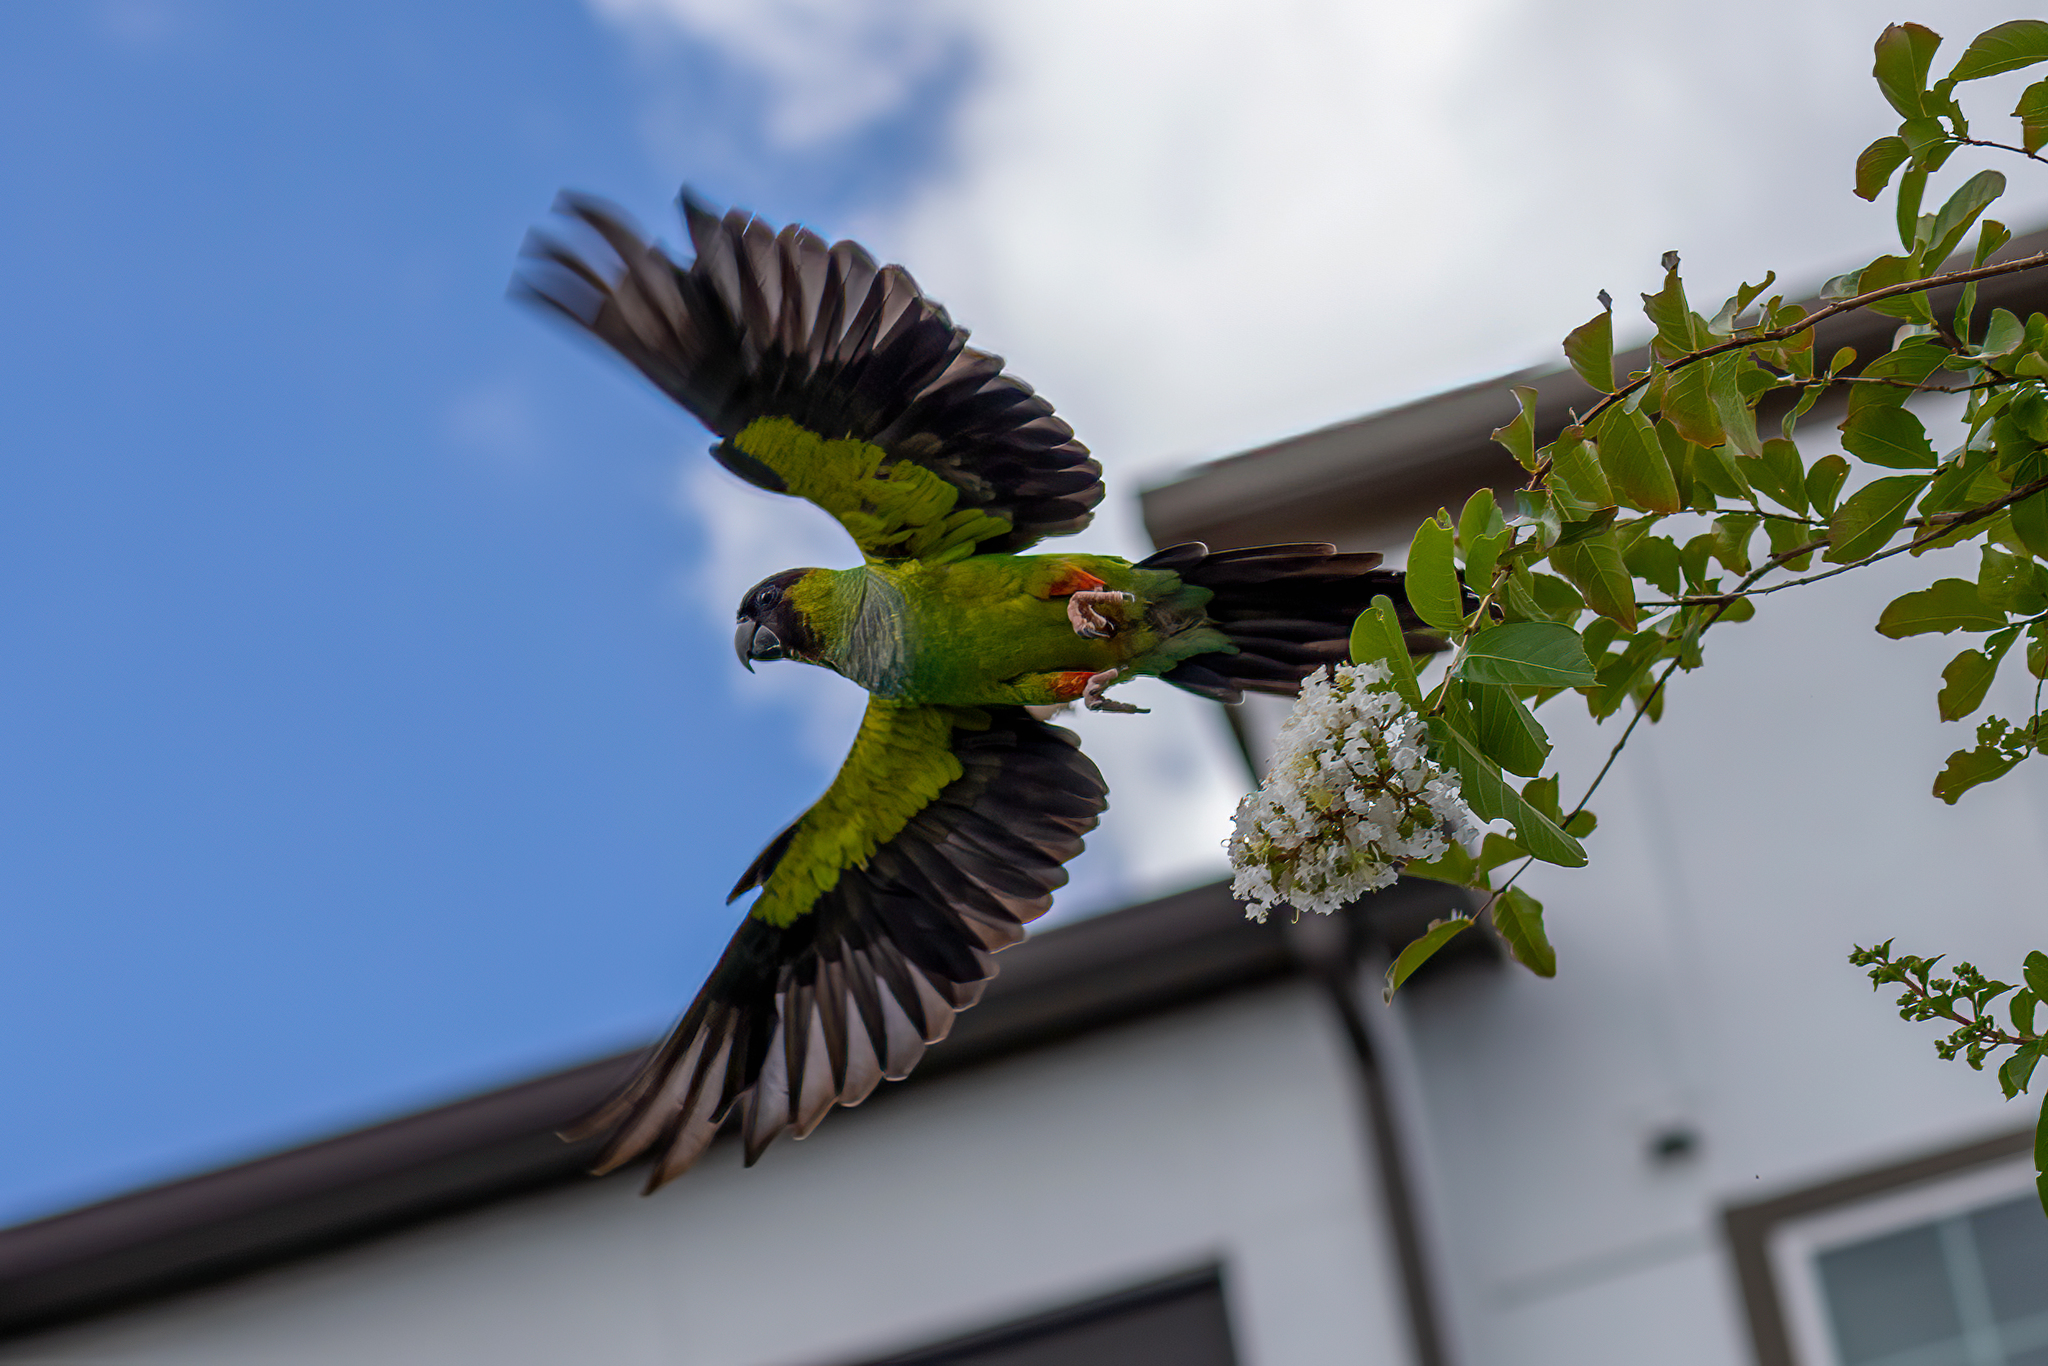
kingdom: Animalia
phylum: Chordata
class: Aves
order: Psittaciformes
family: Psittacidae
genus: Nandayus
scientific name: Nandayus nenday
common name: Nanday parakeet
